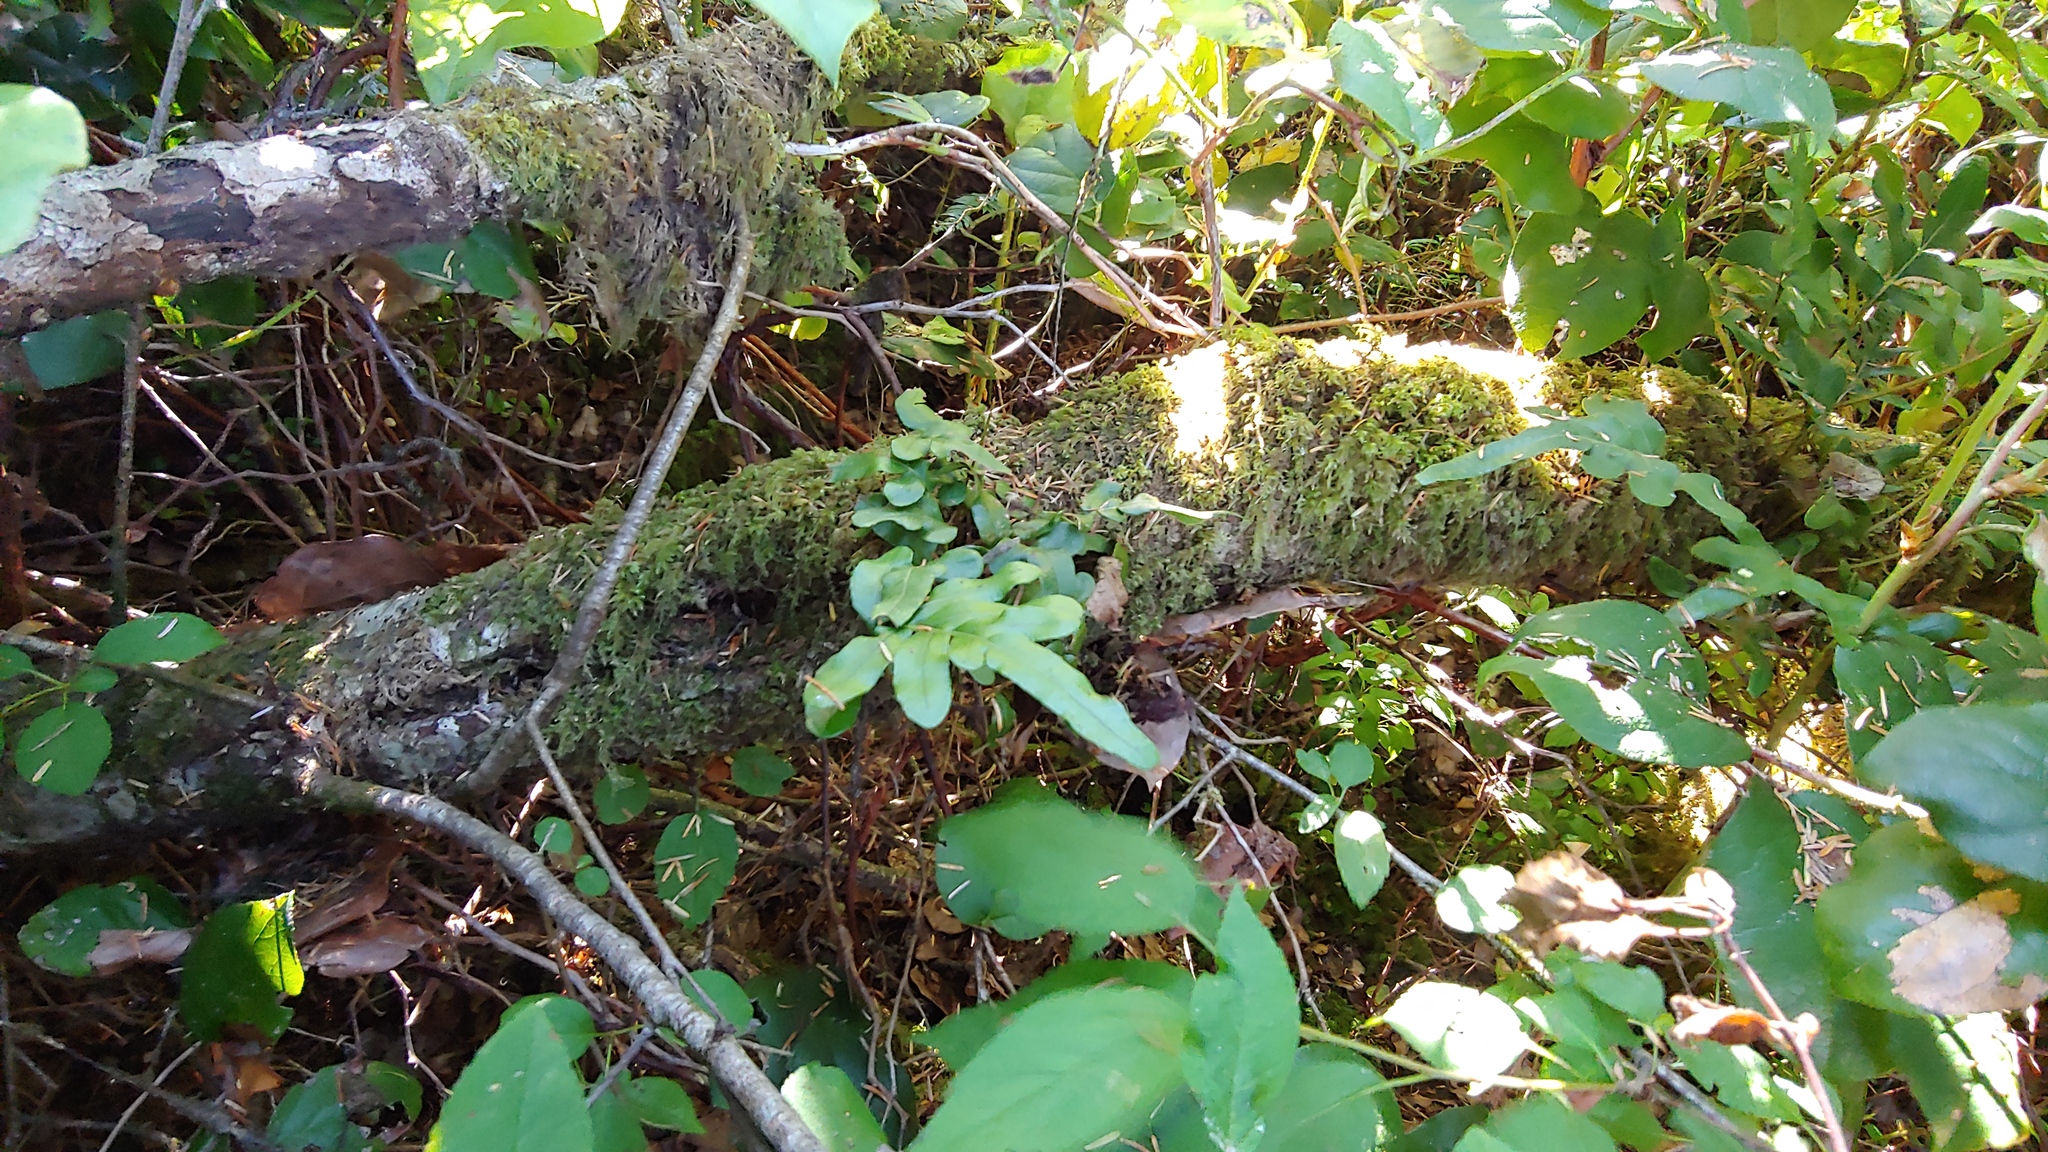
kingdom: Plantae
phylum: Tracheophyta
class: Polypodiopsida
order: Polypodiales
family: Polypodiaceae
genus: Polypodium
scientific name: Polypodium scouleri
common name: Scouler's polypody
